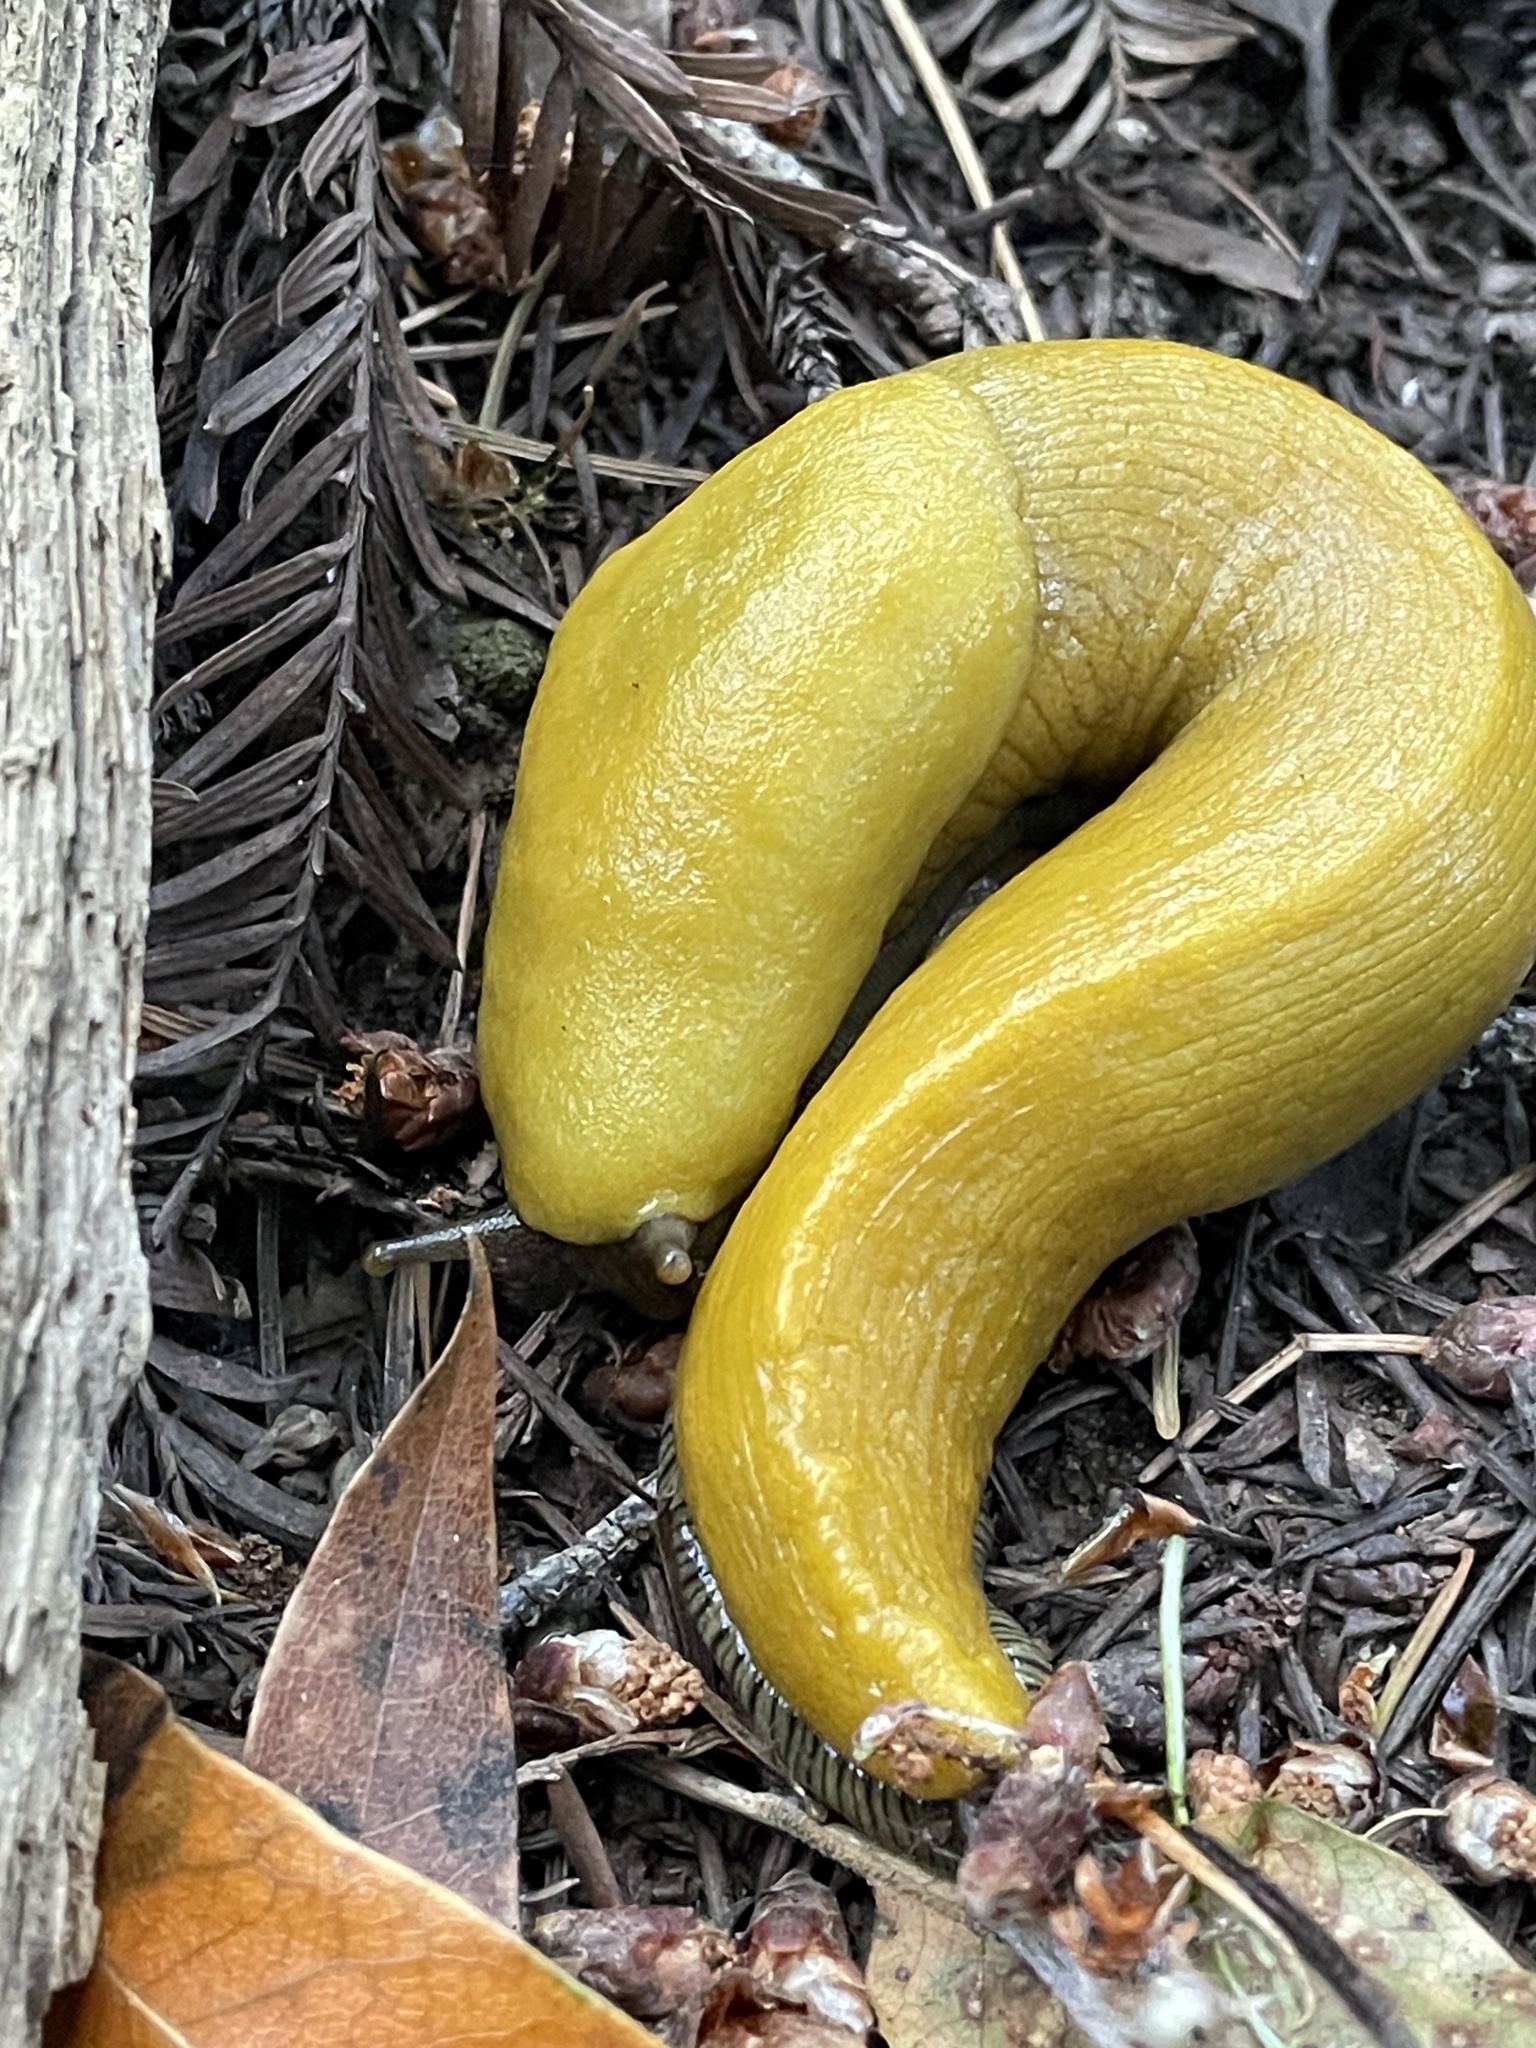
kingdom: Animalia
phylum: Mollusca
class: Gastropoda
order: Stylommatophora
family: Ariolimacidae
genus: Ariolimax
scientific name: Ariolimax dolichophallus
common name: Slender banana slug
